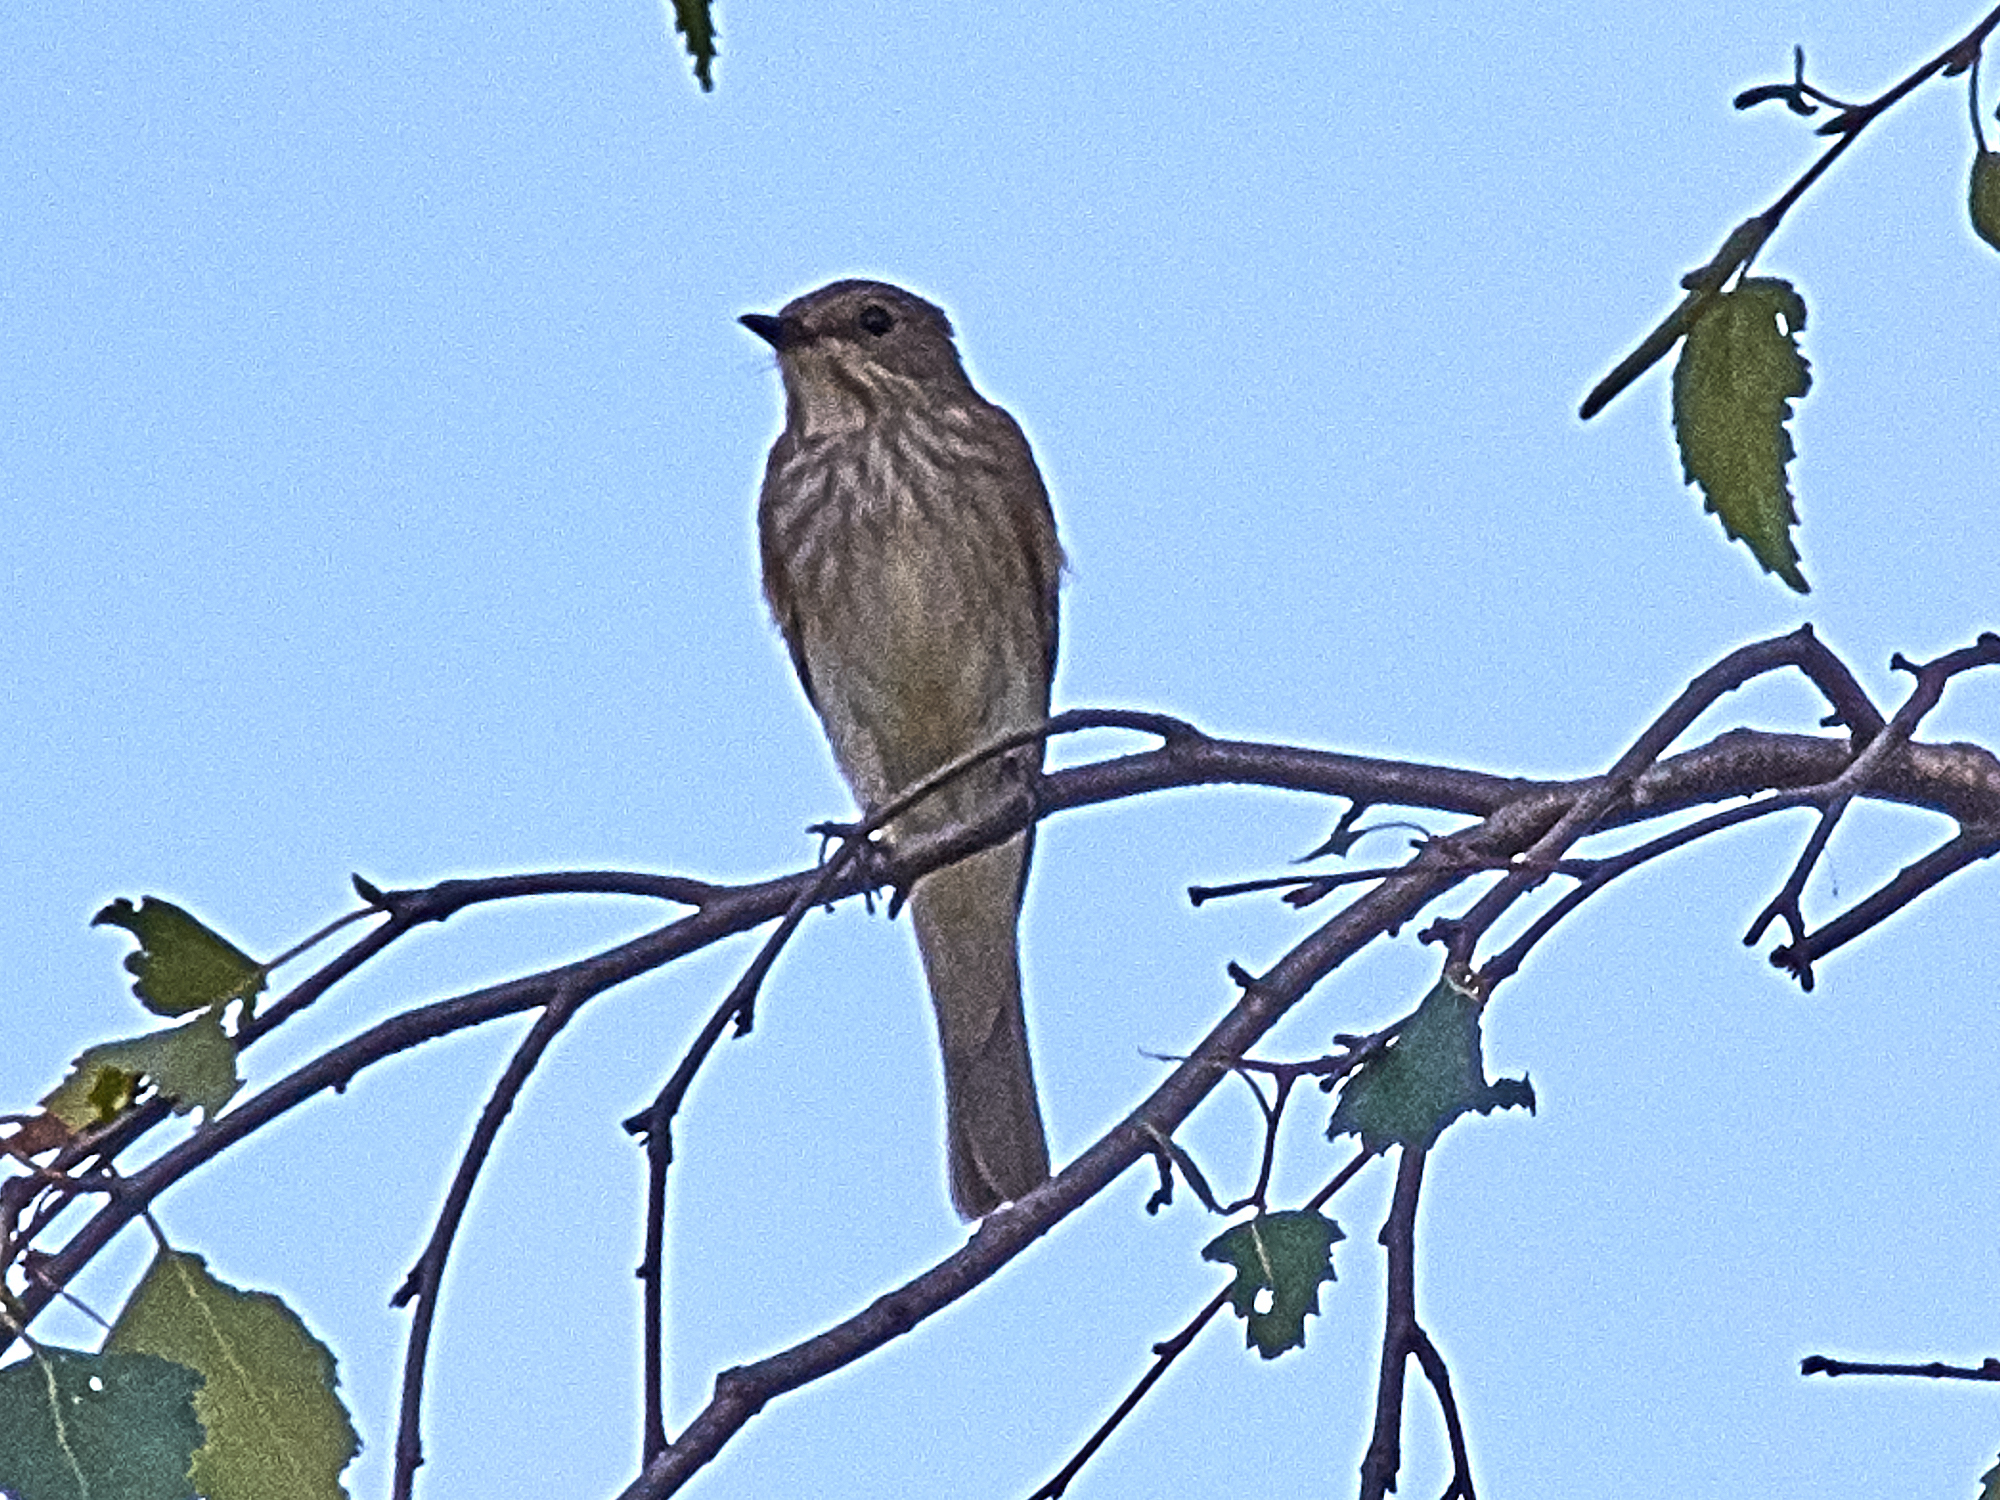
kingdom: Animalia
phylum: Chordata
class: Aves
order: Passeriformes
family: Muscicapidae
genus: Muscicapa
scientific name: Muscicapa striata
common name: Spotted flycatcher
